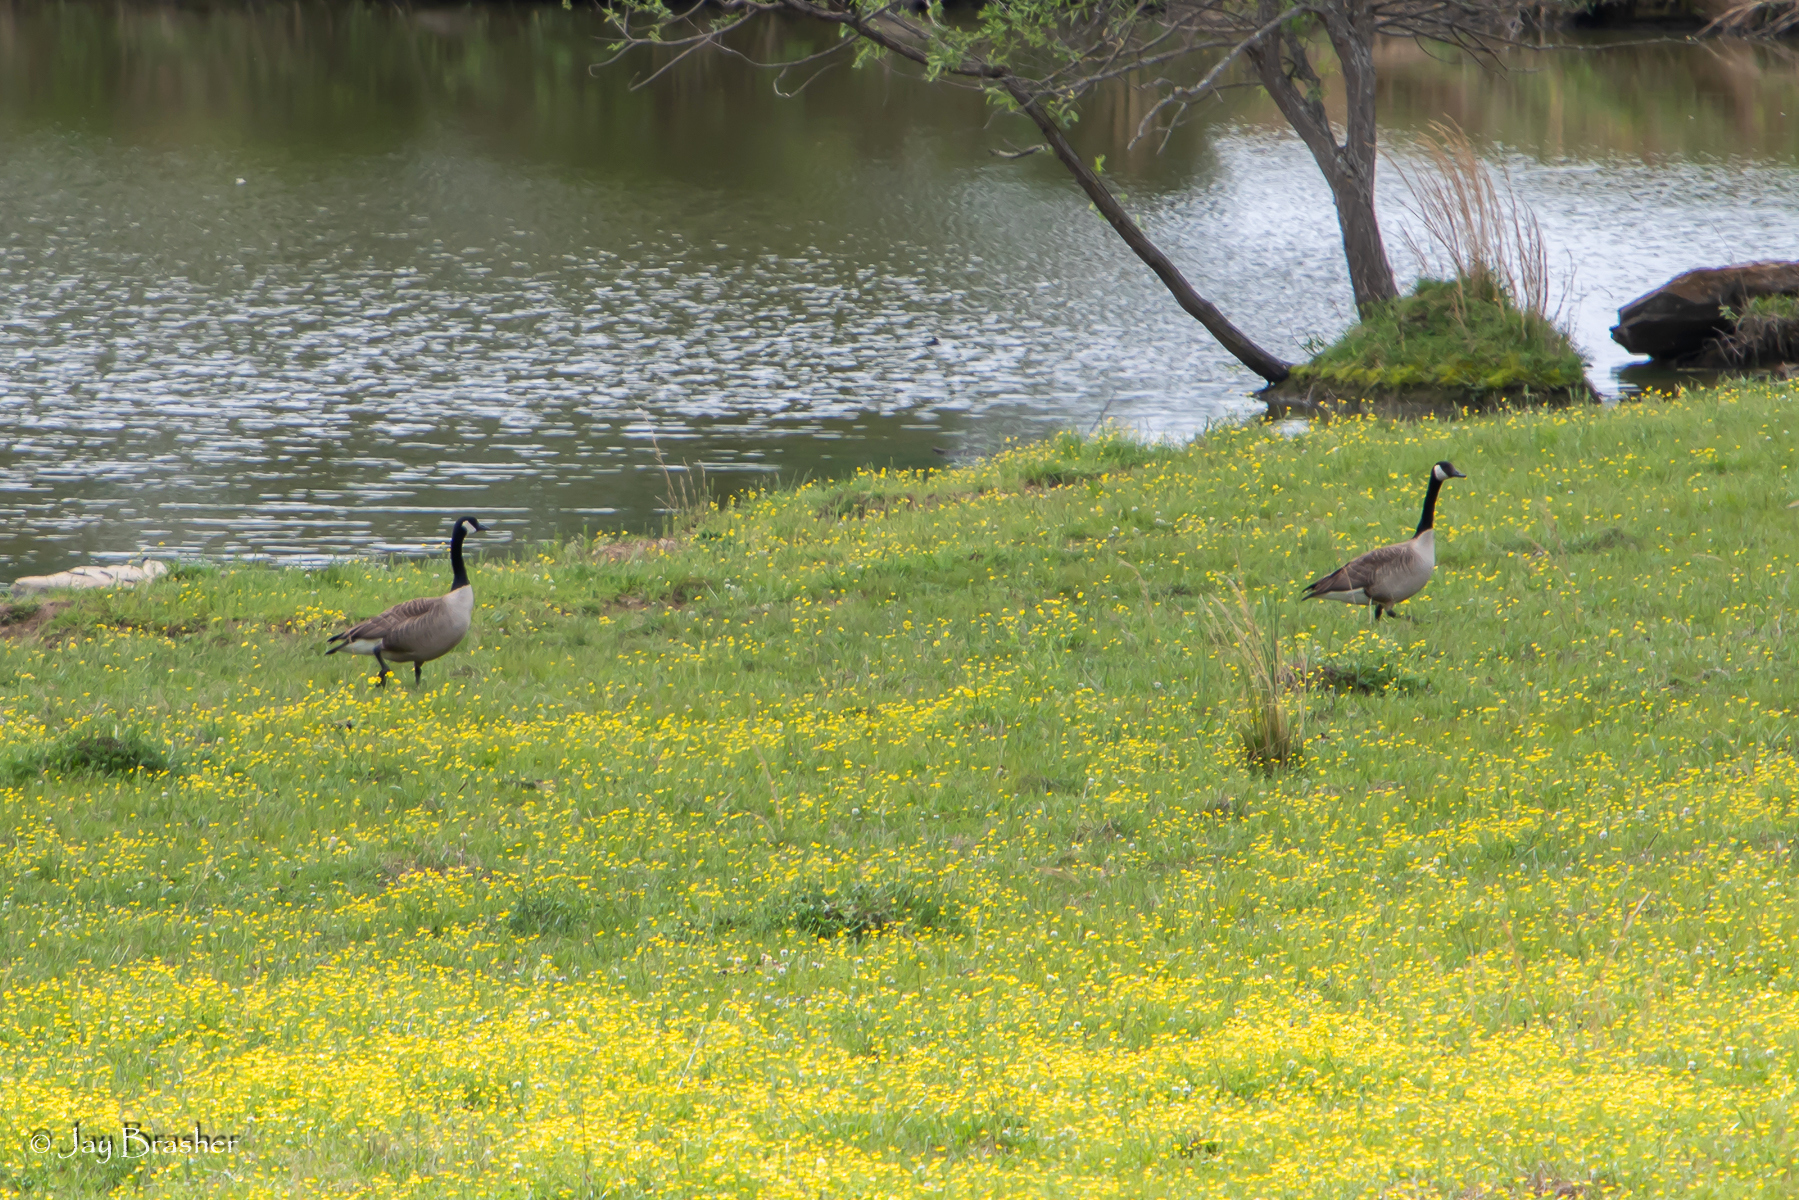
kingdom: Animalia
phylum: Chordata
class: Aves
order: Anseriformes
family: Anatidae
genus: Branta
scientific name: Branta canadensis
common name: Canada goose
